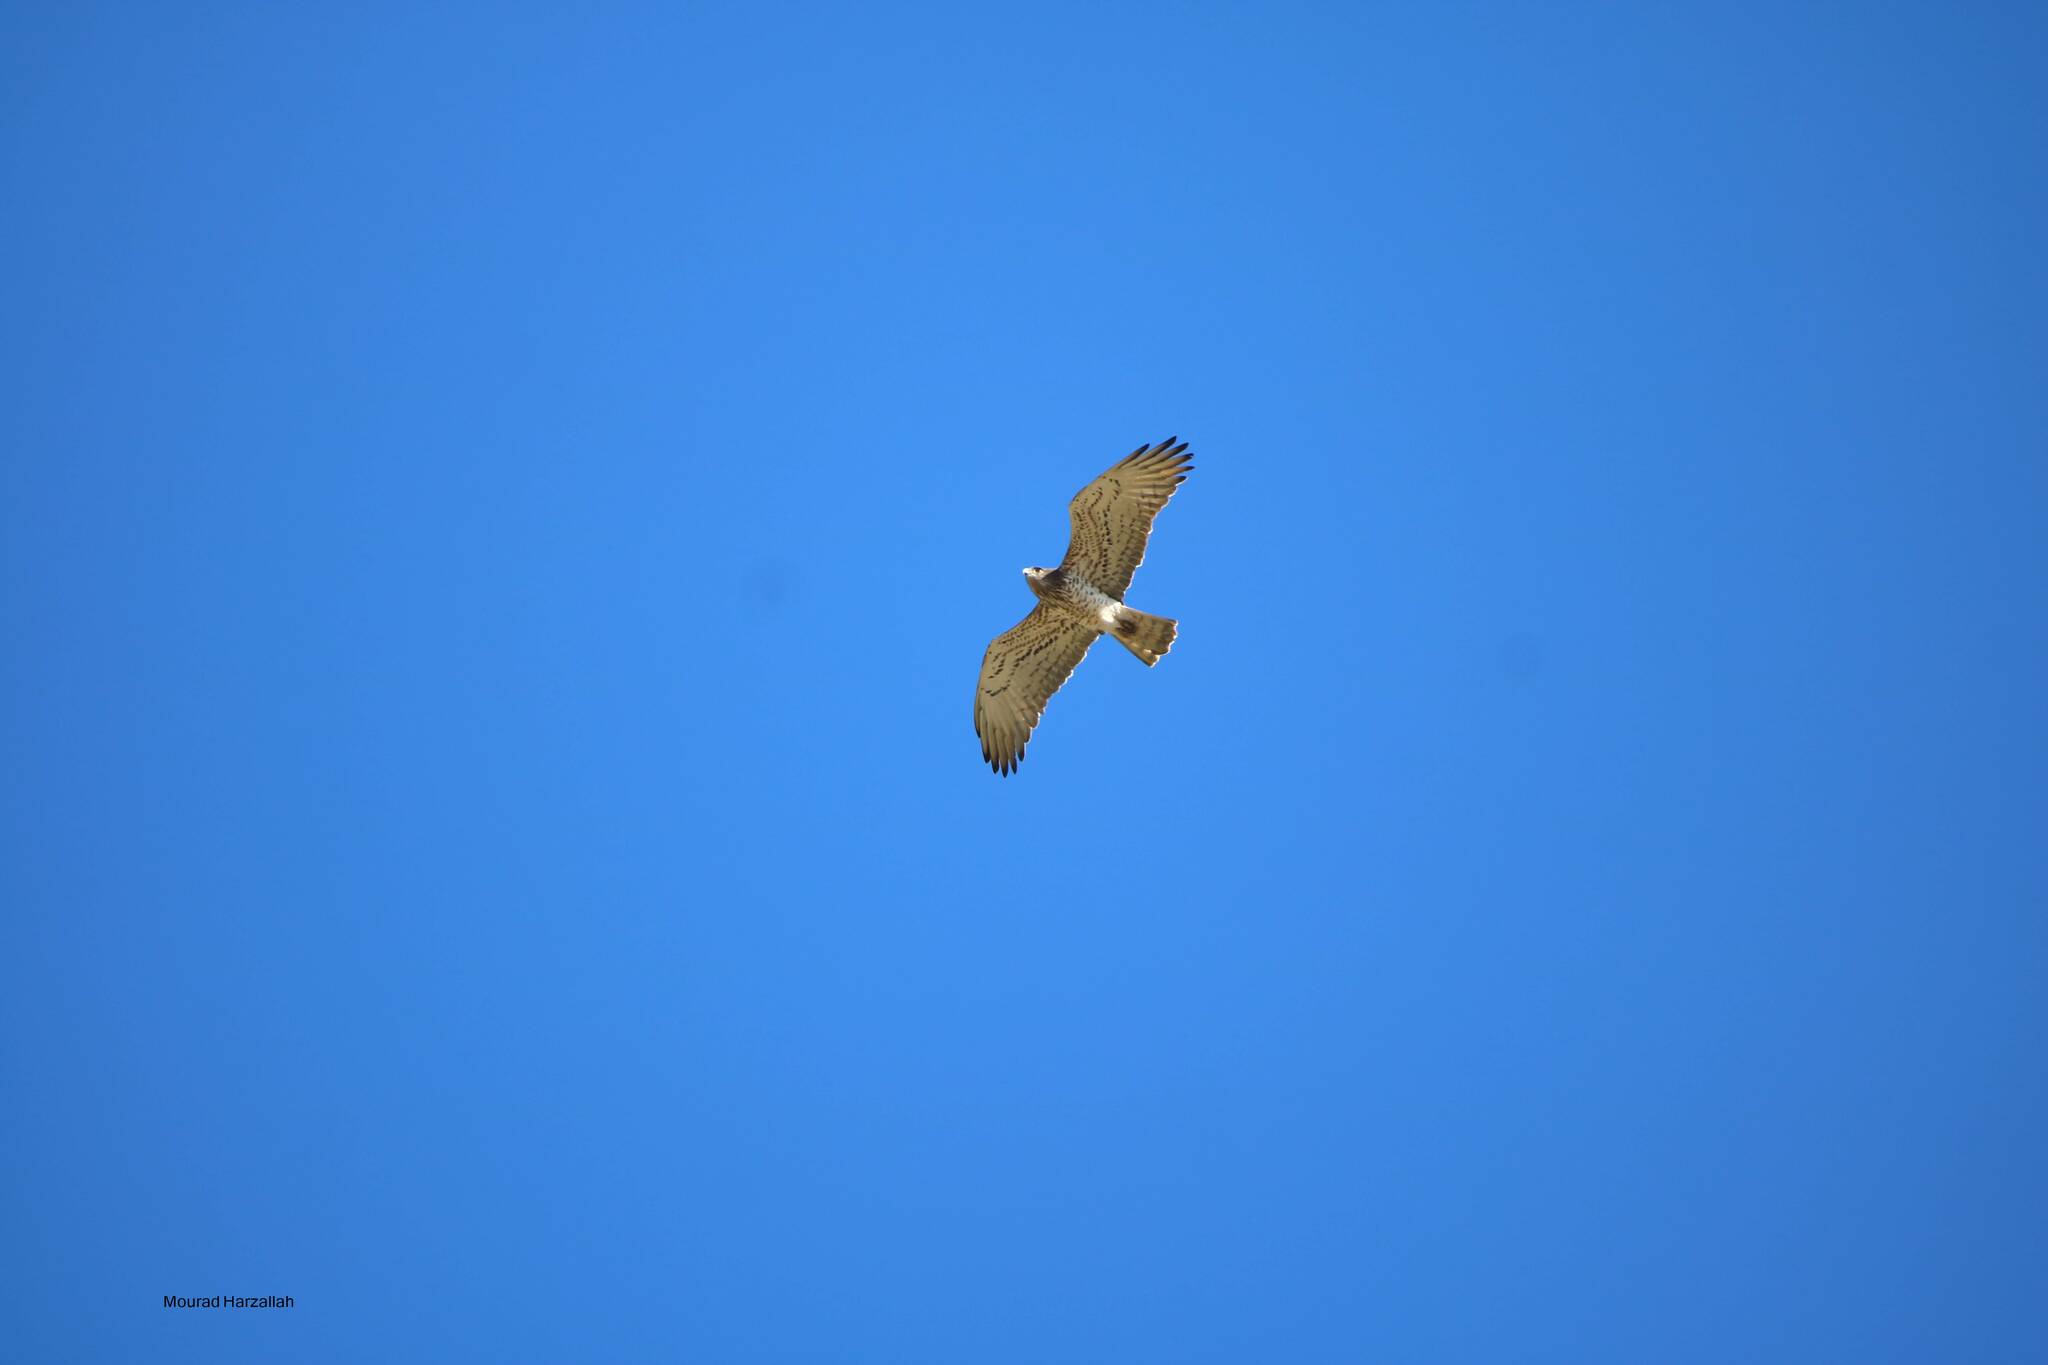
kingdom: Animalia
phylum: Chordata
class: Aves
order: Accipitriformes
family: Accipitridae
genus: Circaetus
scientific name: Circaetus gallicus
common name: Short-toed snake eagle
